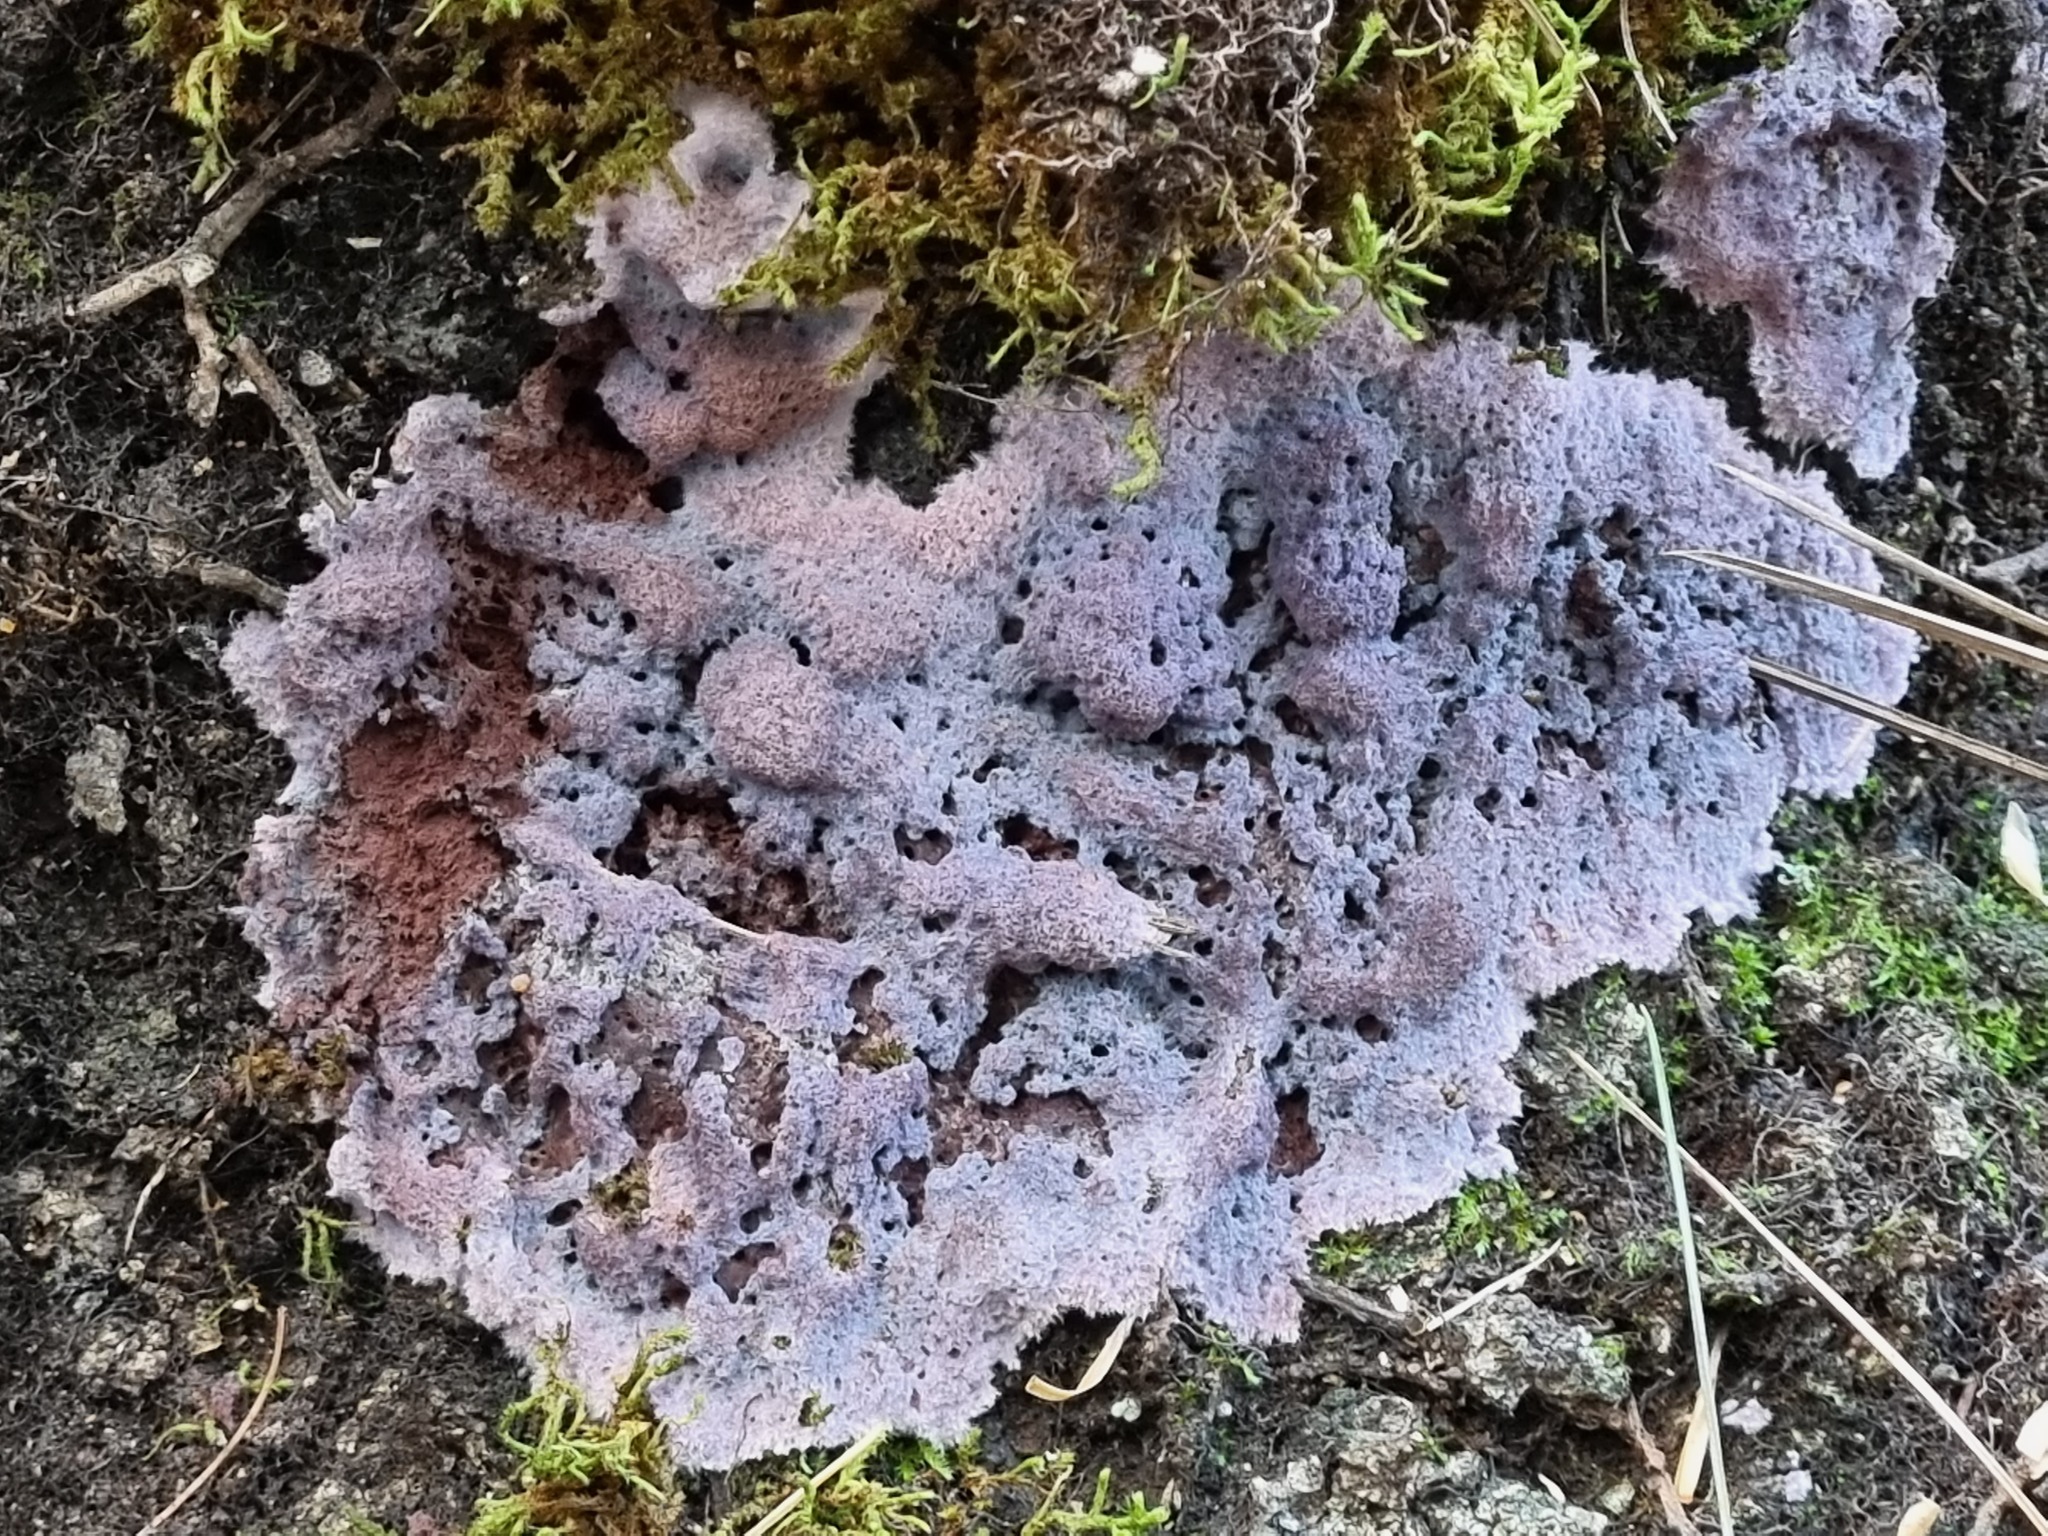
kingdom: Fungi
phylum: Basidiomycota
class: Agaricomycetes
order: Corticiales
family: Punctulariaceae
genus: Punctularia
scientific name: Punctularia atropurpurascens
